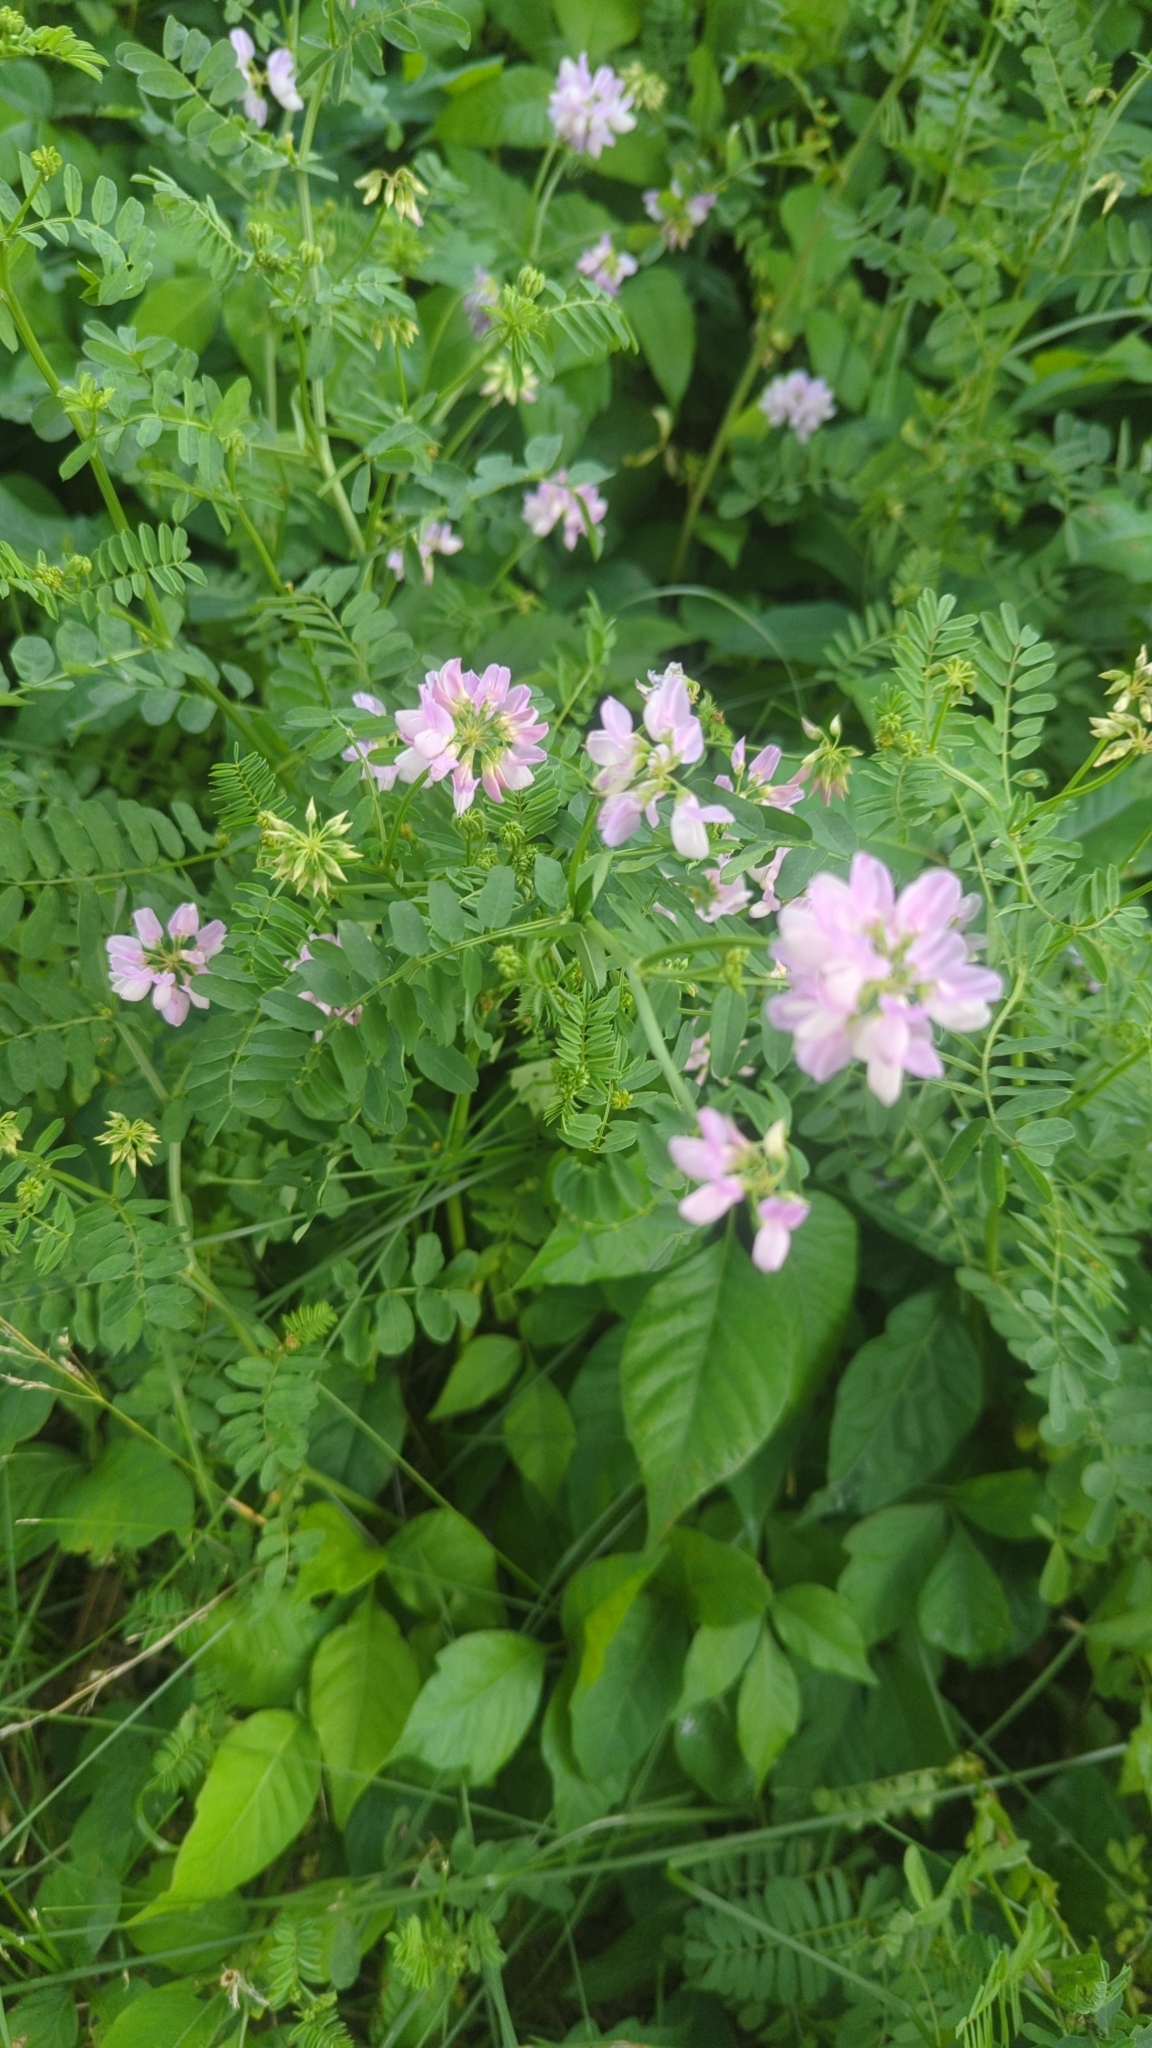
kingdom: Plantae
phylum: Tracheophyta
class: Magnoliopsida
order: Fabales
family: Fabaceae
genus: Coronilla
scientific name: Coronilla varia
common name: Crownvetch
